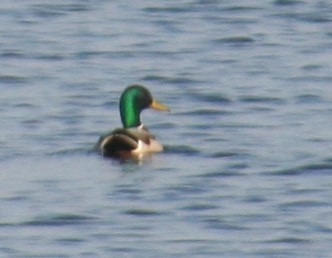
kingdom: Animalia
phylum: Chordata
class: Aves
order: Anseriformes
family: Anatidae
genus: Anas
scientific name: Anas platyrhynchos
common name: Mallard
